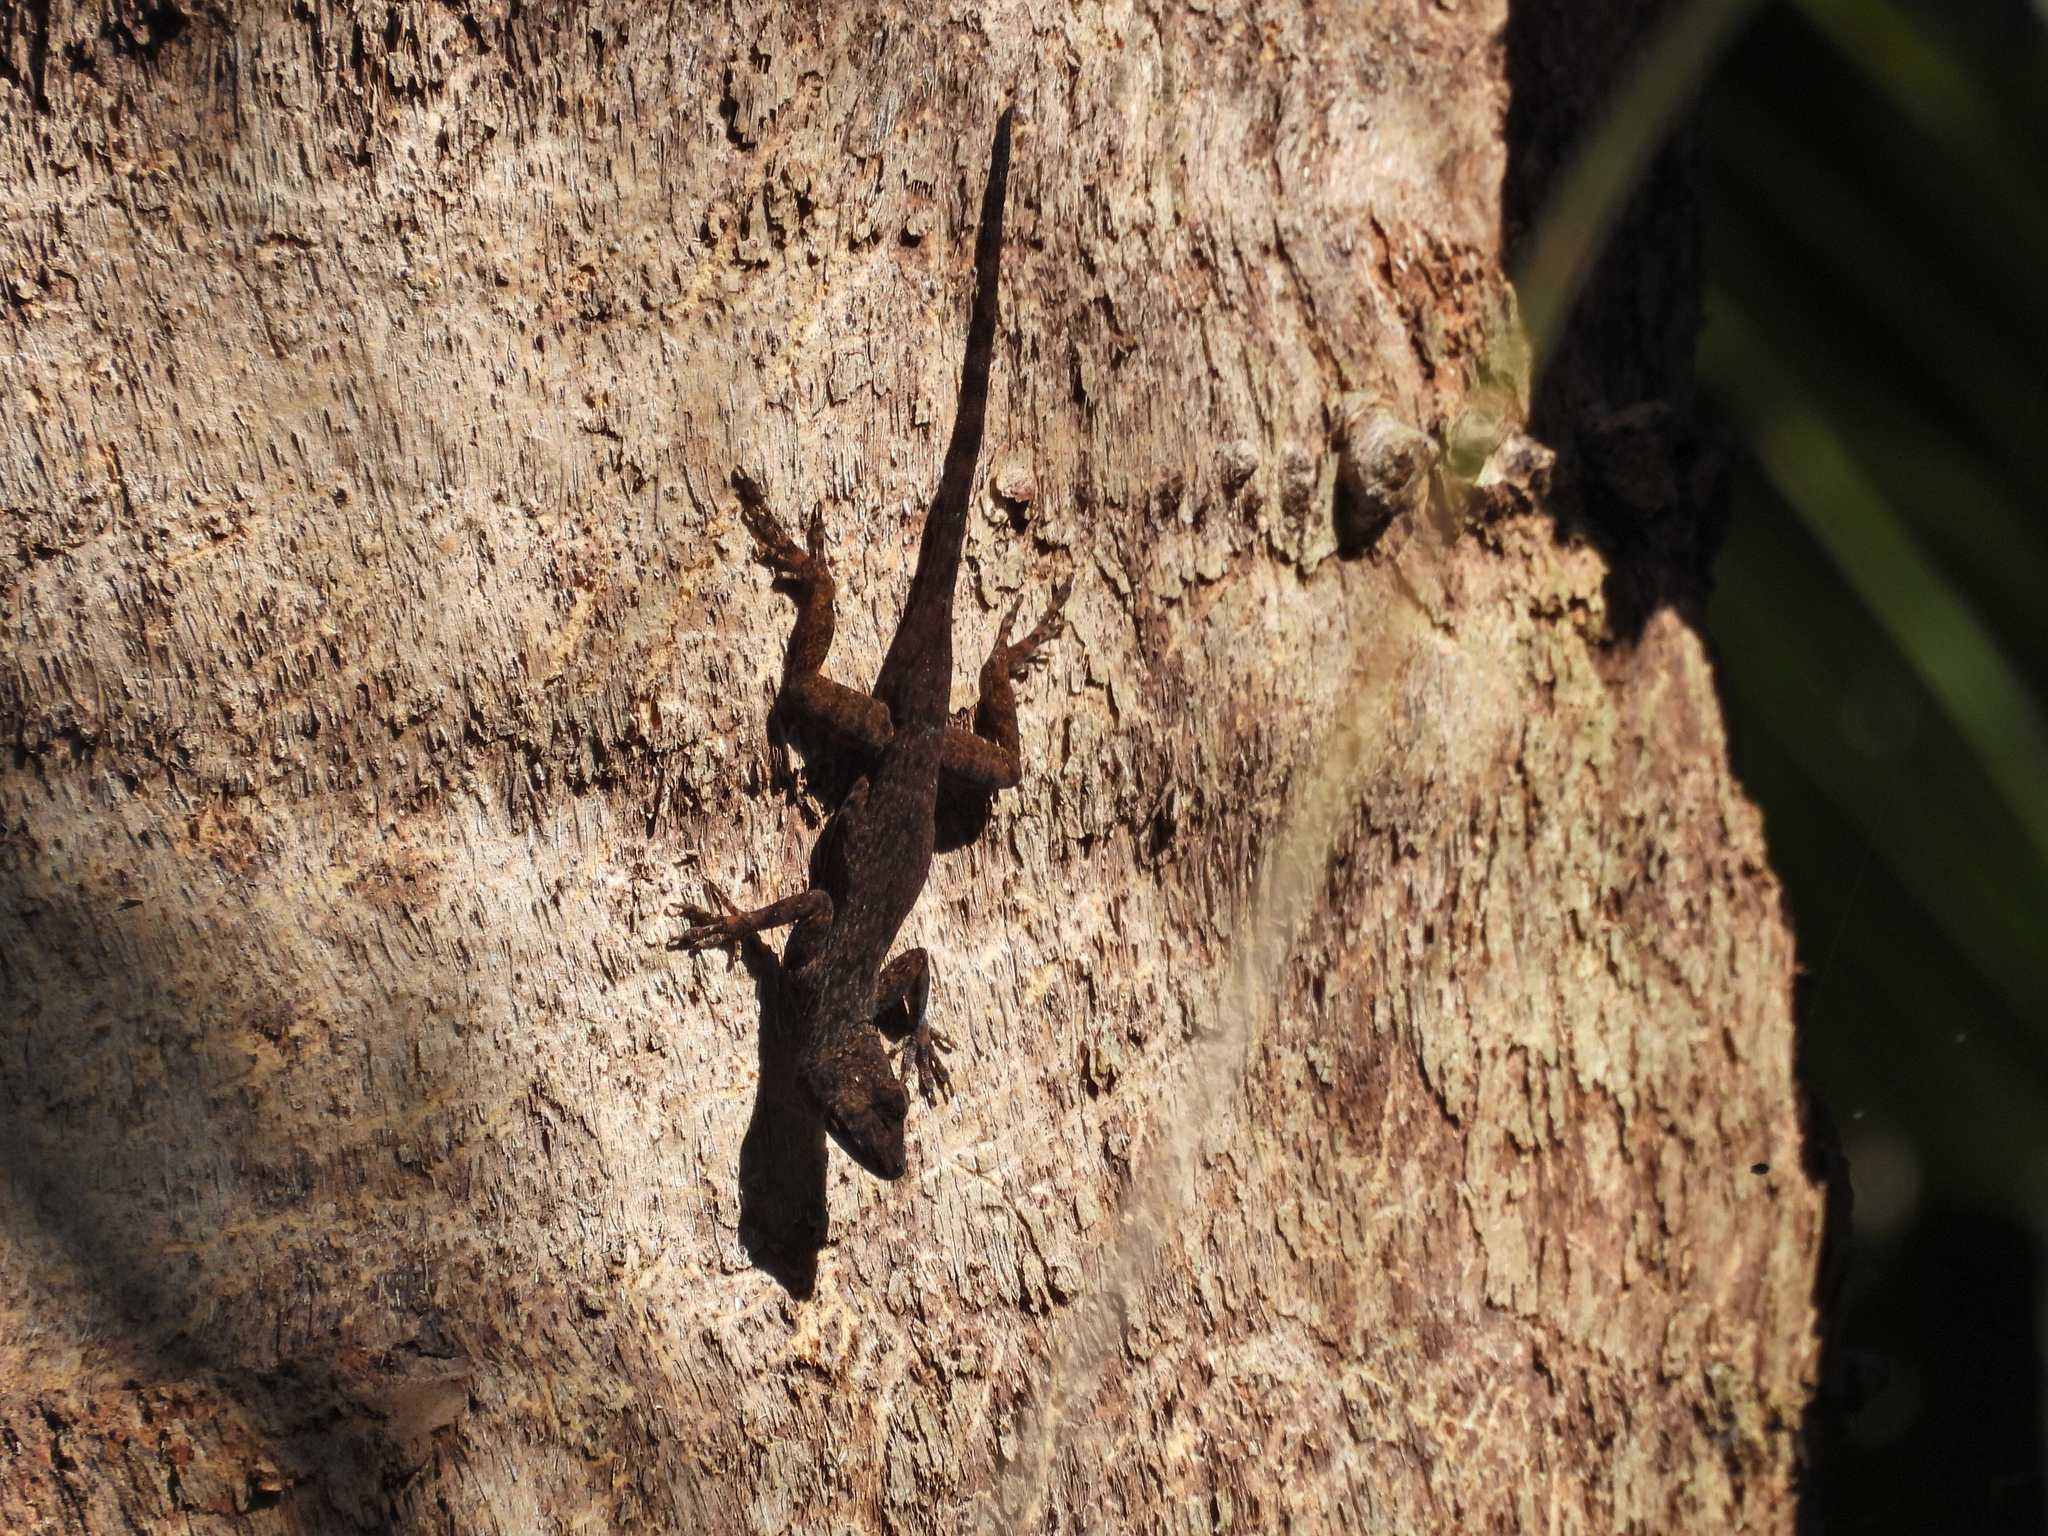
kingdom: Animalia
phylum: Chordata
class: Squamata
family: Dactyloidae
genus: Anolis
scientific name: Anolis distichus
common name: Bark anole
